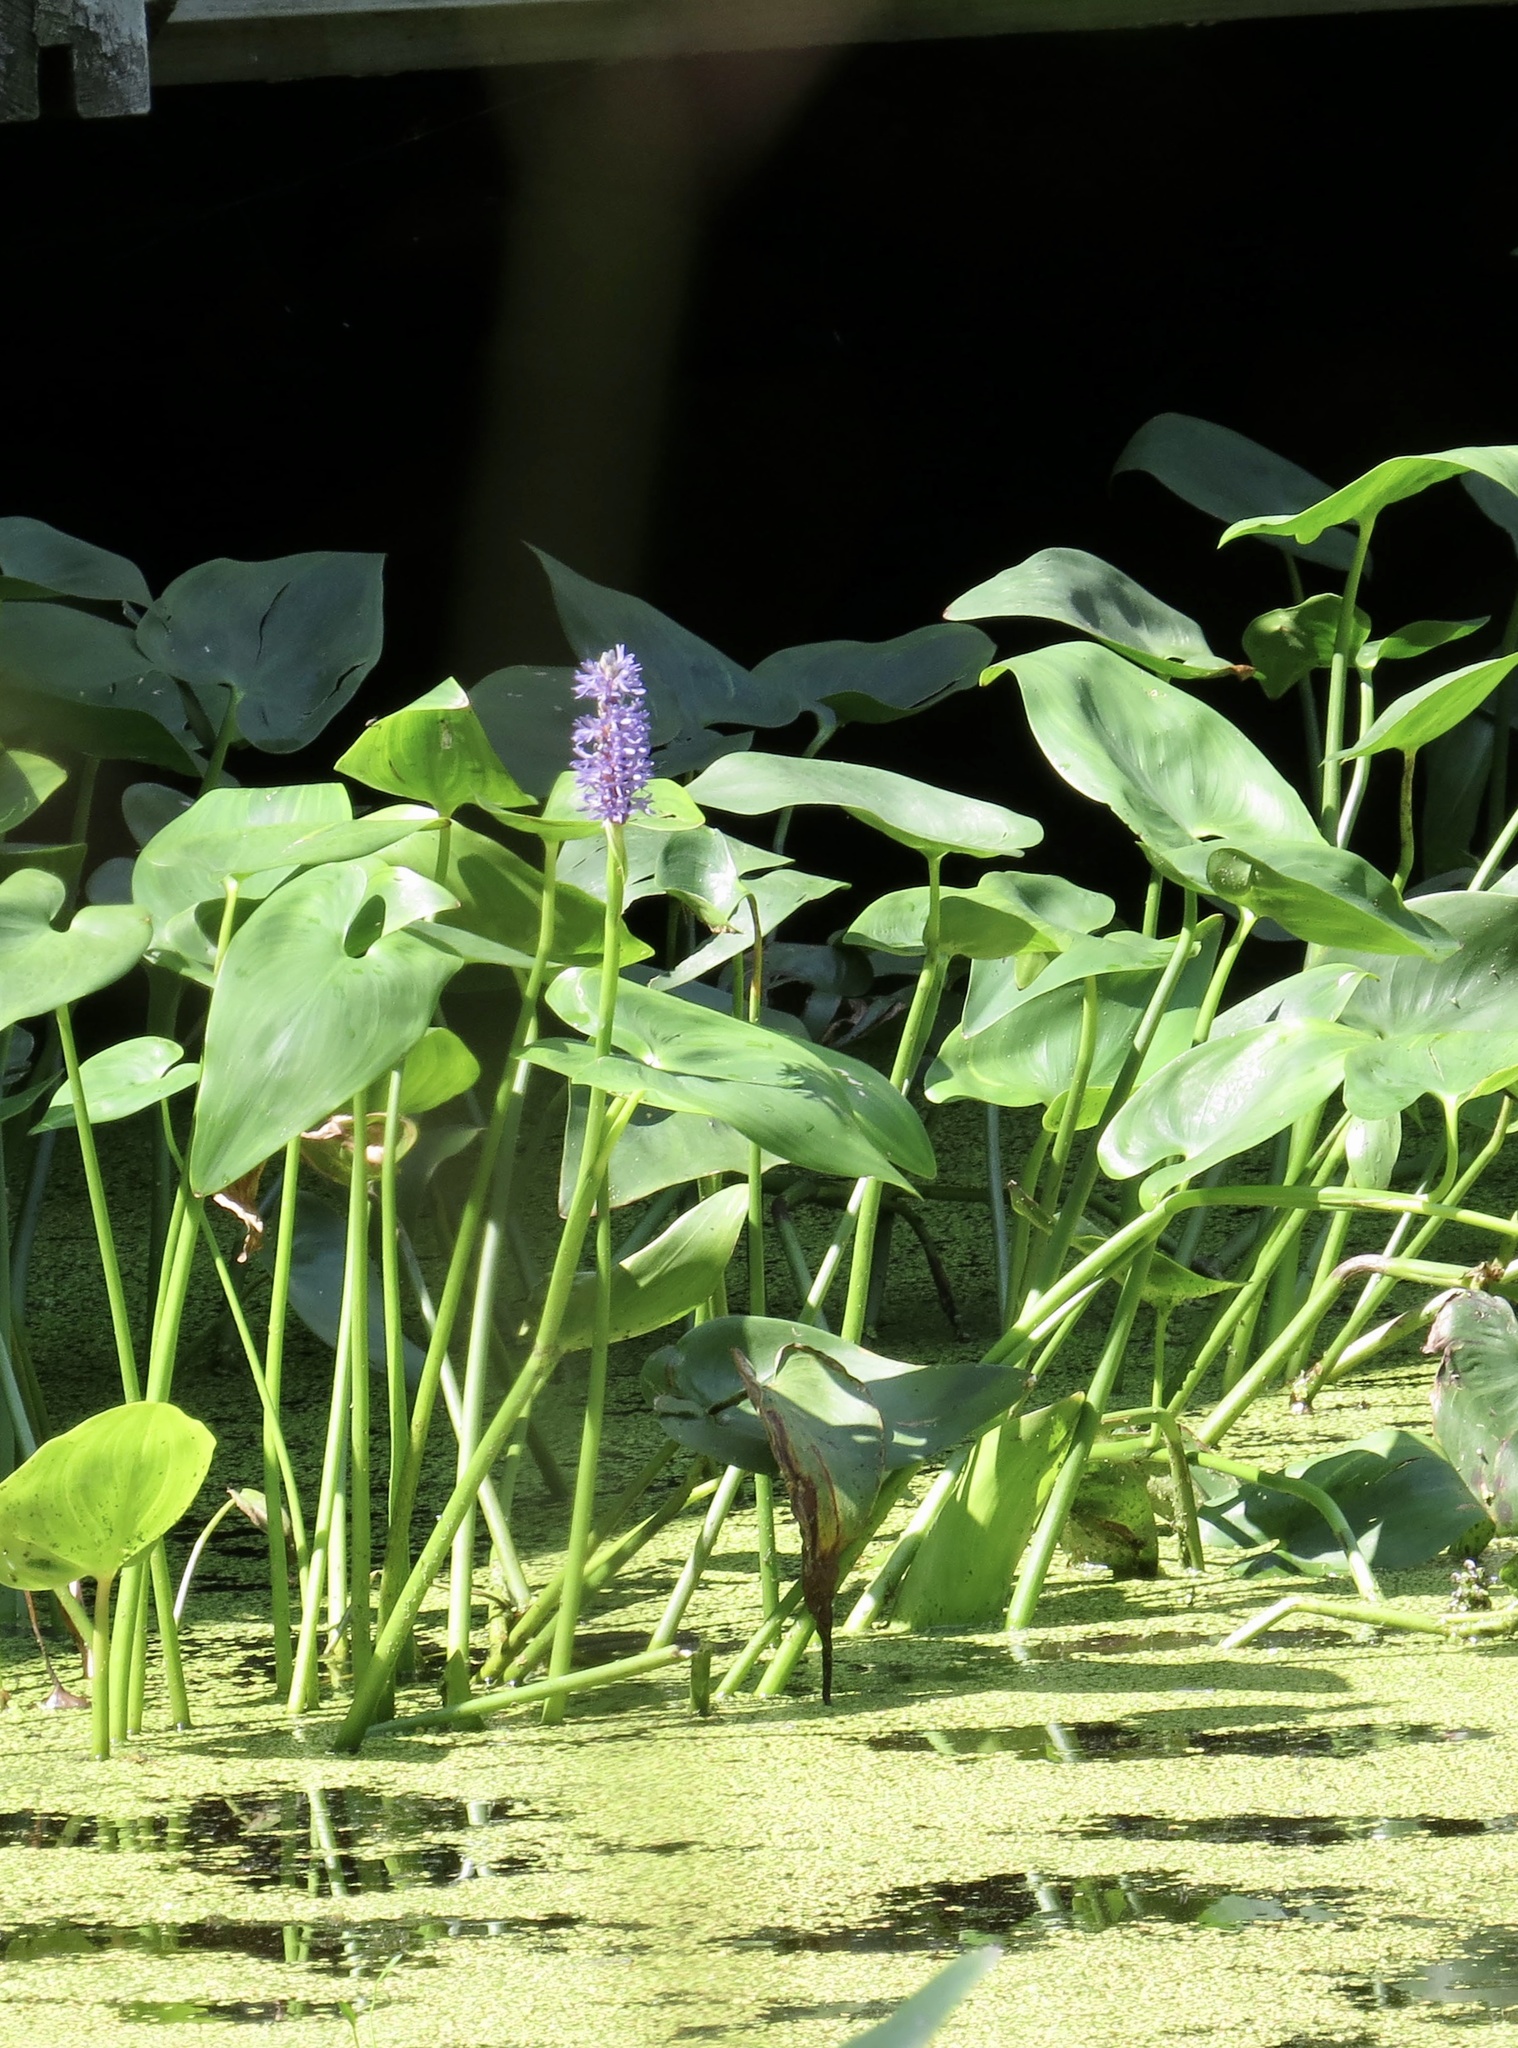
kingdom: Plantae
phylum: Tracheophyta
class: Liliopsida
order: Commelinales
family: Pontederiaceae
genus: Pontederia
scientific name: Pontederia cordata
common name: Pickerelweed
